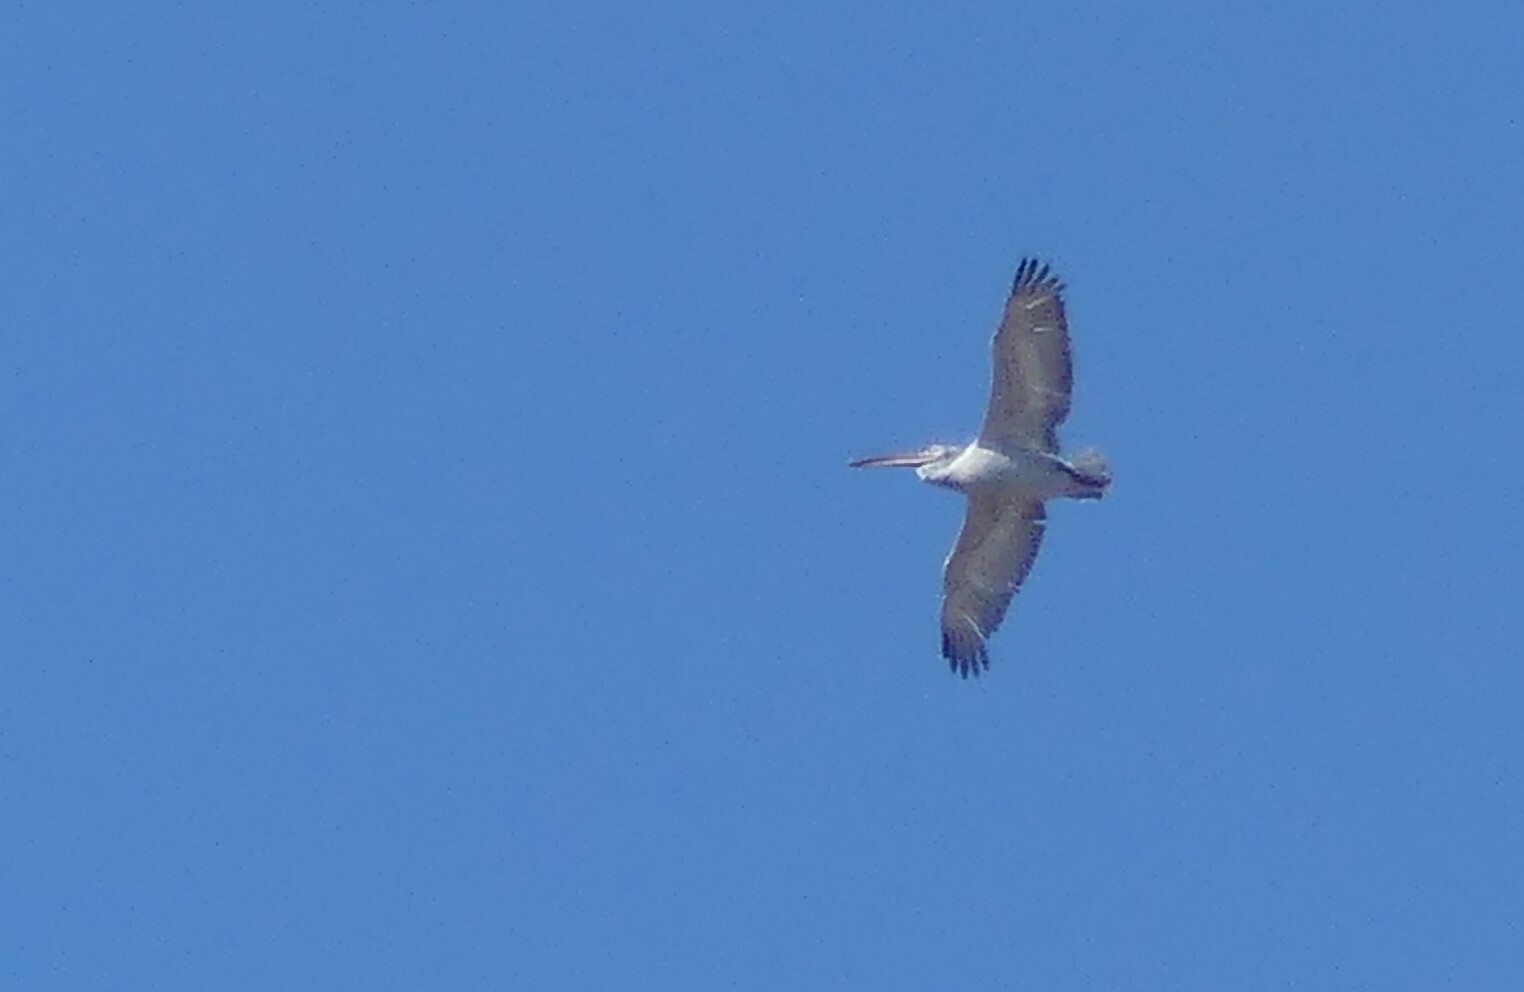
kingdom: Animalia
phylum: Chordata
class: Aves
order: Pelecaniformes
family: Pelecanidae
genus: Pelecanus
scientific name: Pelecanus crispus
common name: Dalmatian pelican
